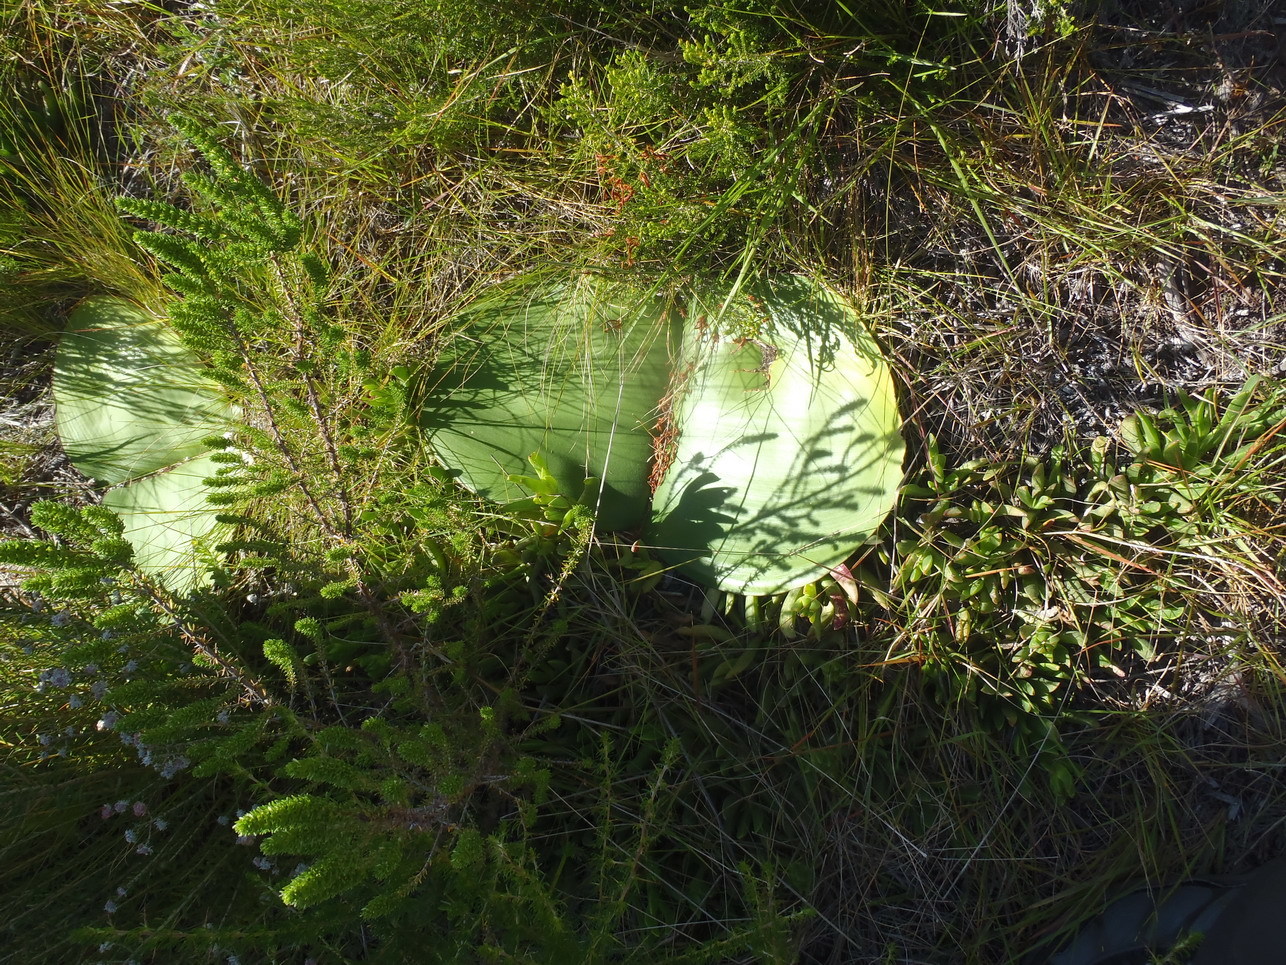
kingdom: Plantae
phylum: Tracheophyta
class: Liliopsida
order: Asparagales
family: Amaryllidaceae
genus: Haemanthus
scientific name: Haemanthus sanguineus
